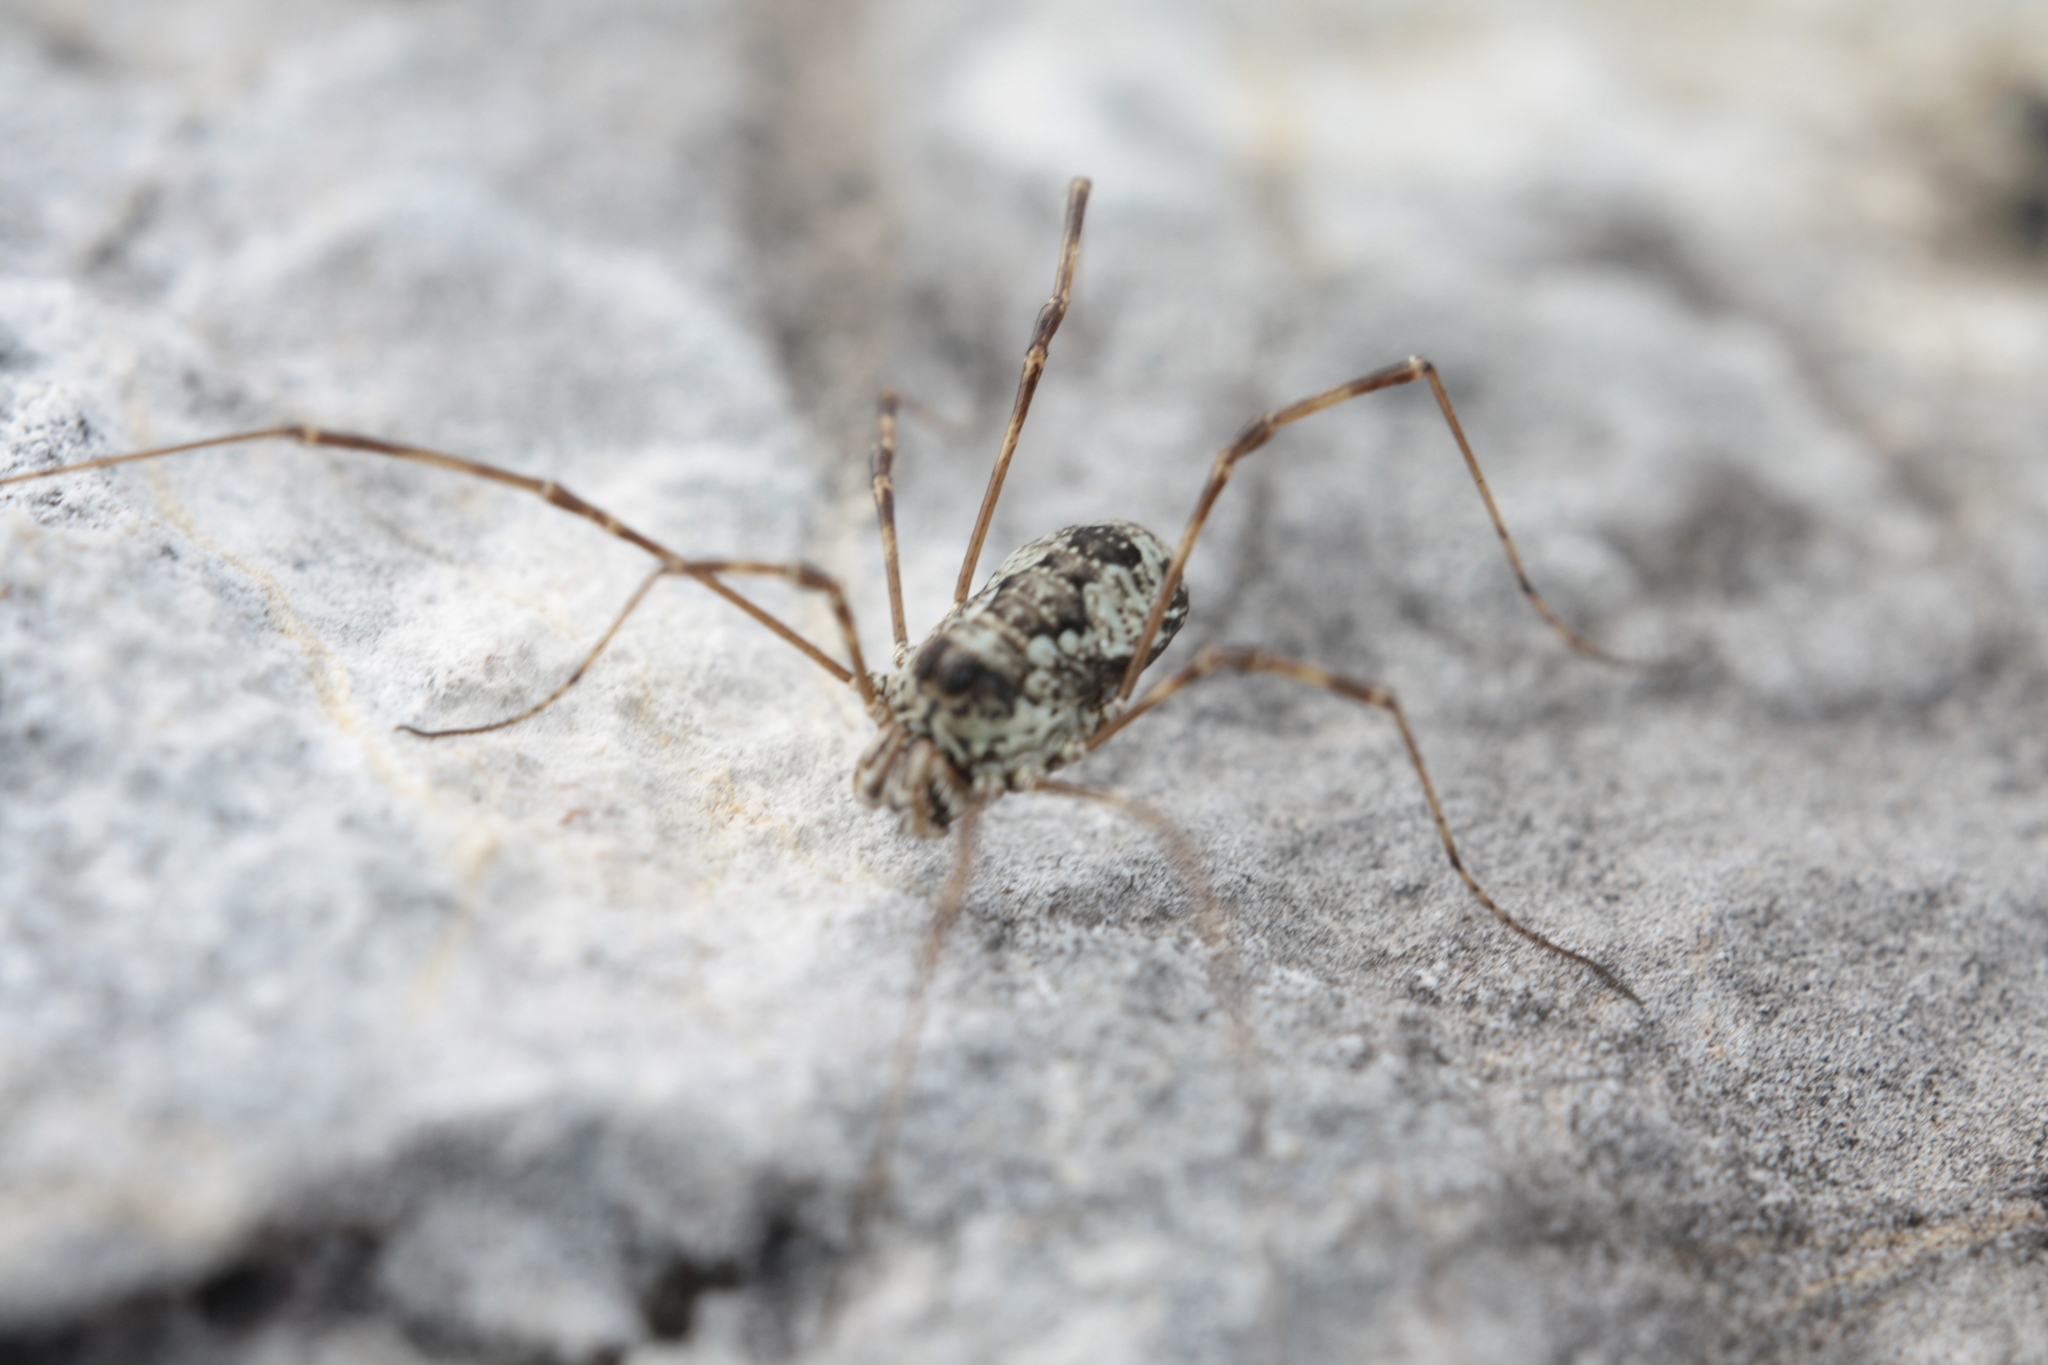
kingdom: Animalia
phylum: Arthropoda
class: Arachnida
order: Opiliones
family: Phalangiidae
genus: Megabunus
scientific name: Megabunus lesserti
